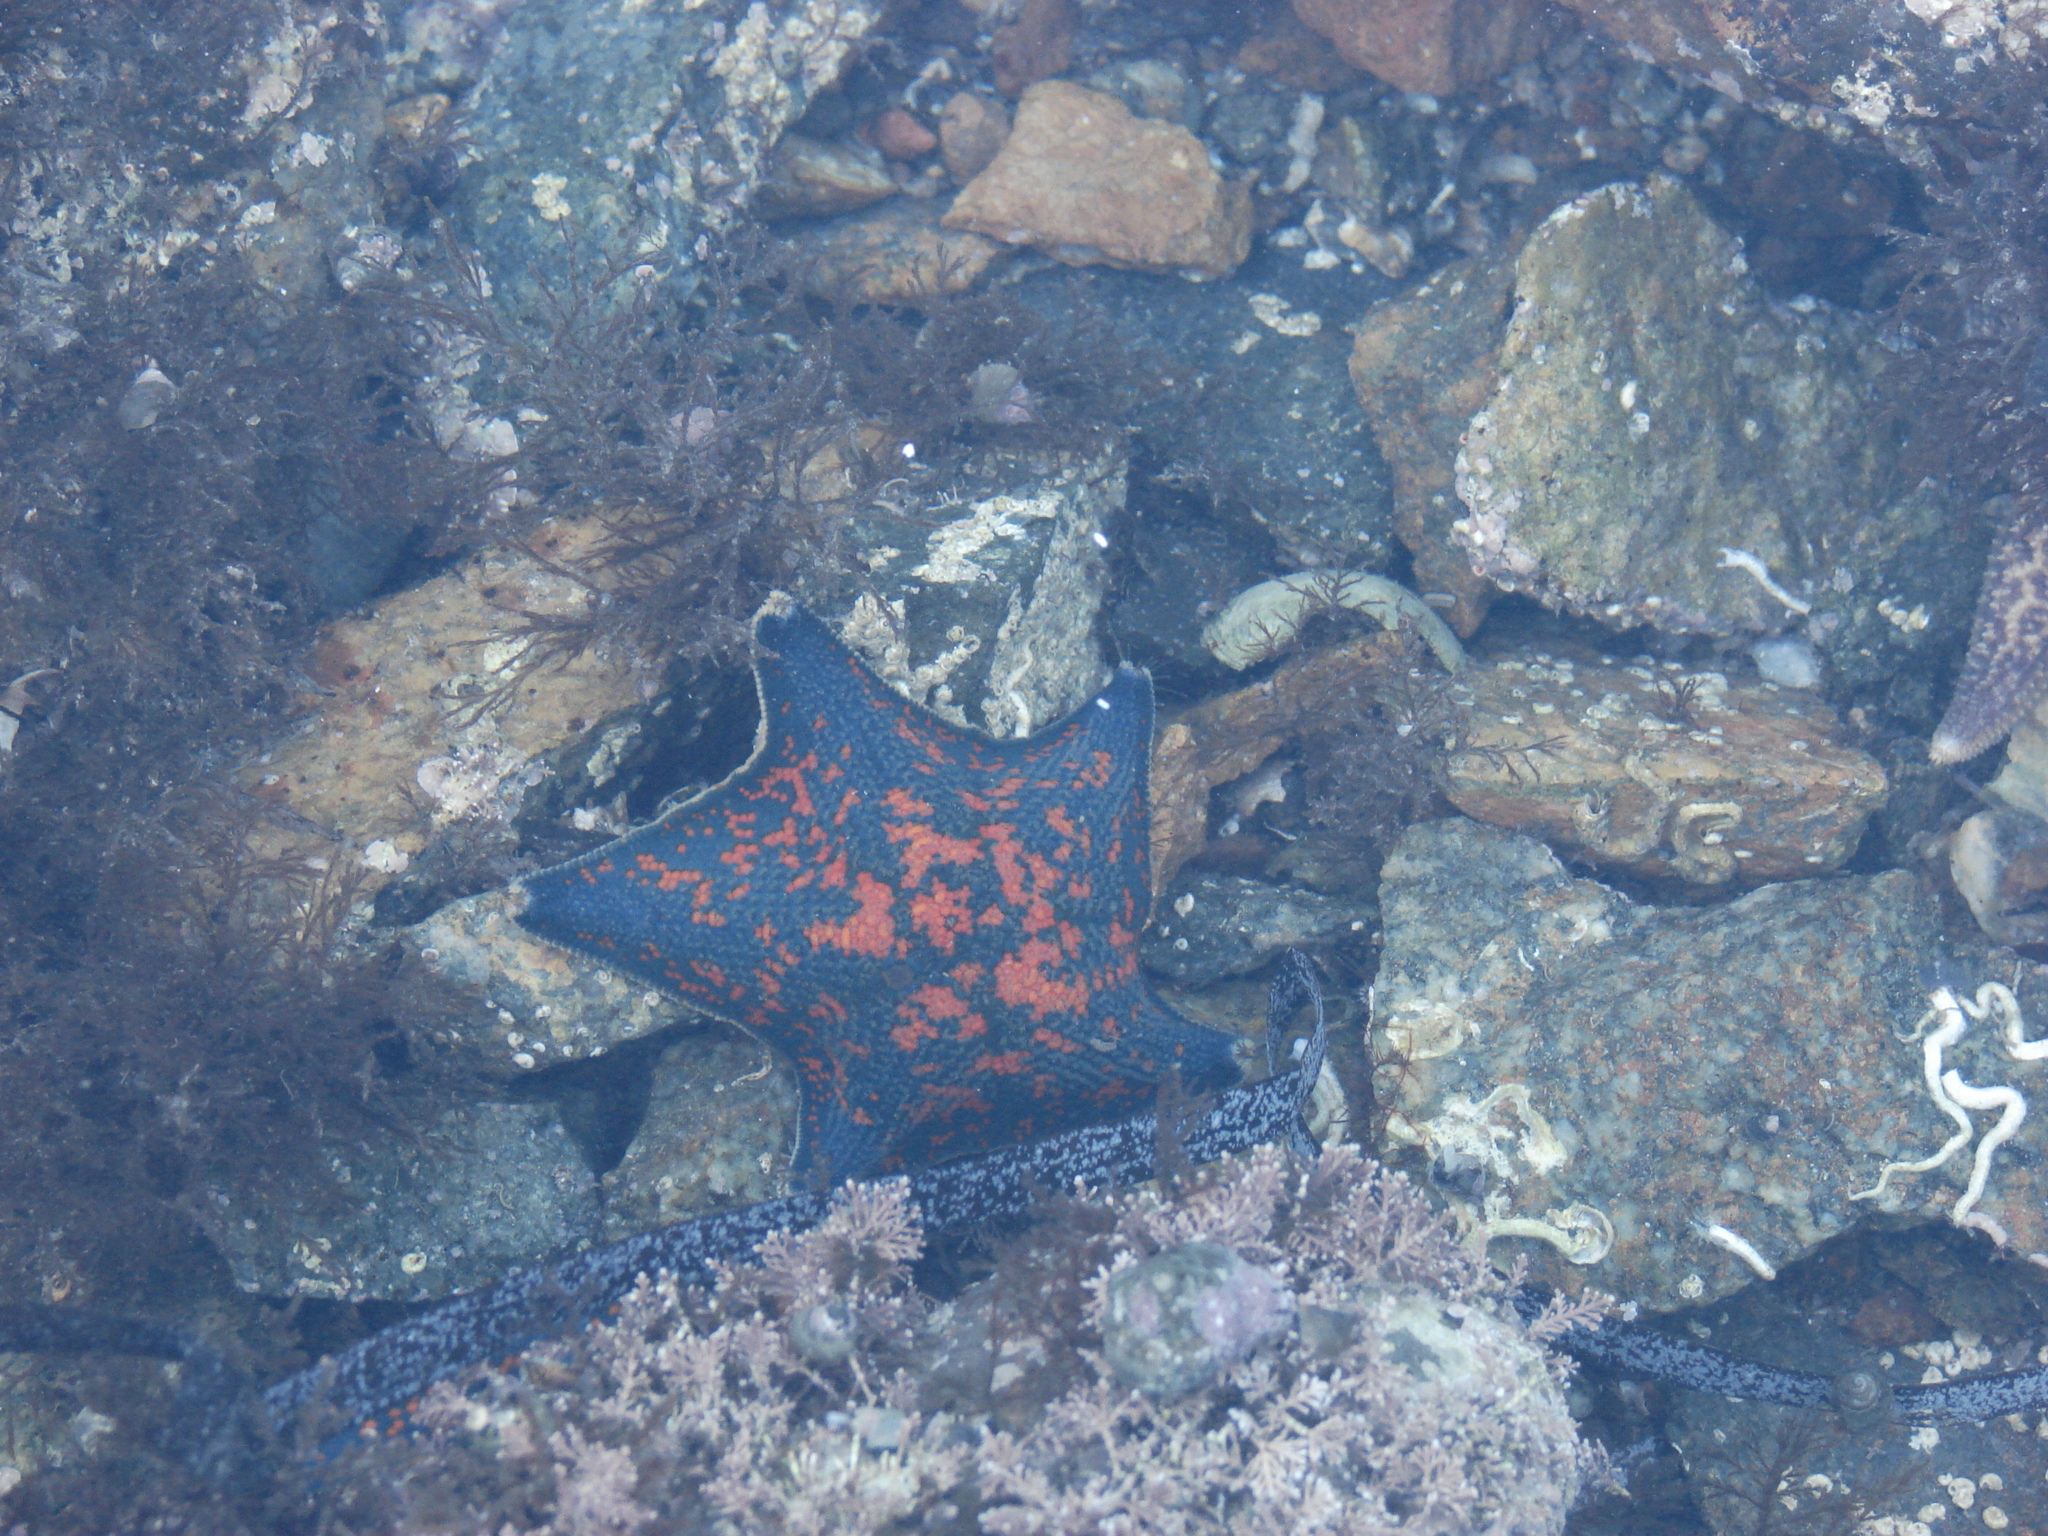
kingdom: Animalia
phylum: Echinodermata
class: Asteroidea
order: Valvatida
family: Asterinidae
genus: Patiria
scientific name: Patiria pectinifera
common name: Blue bat star
